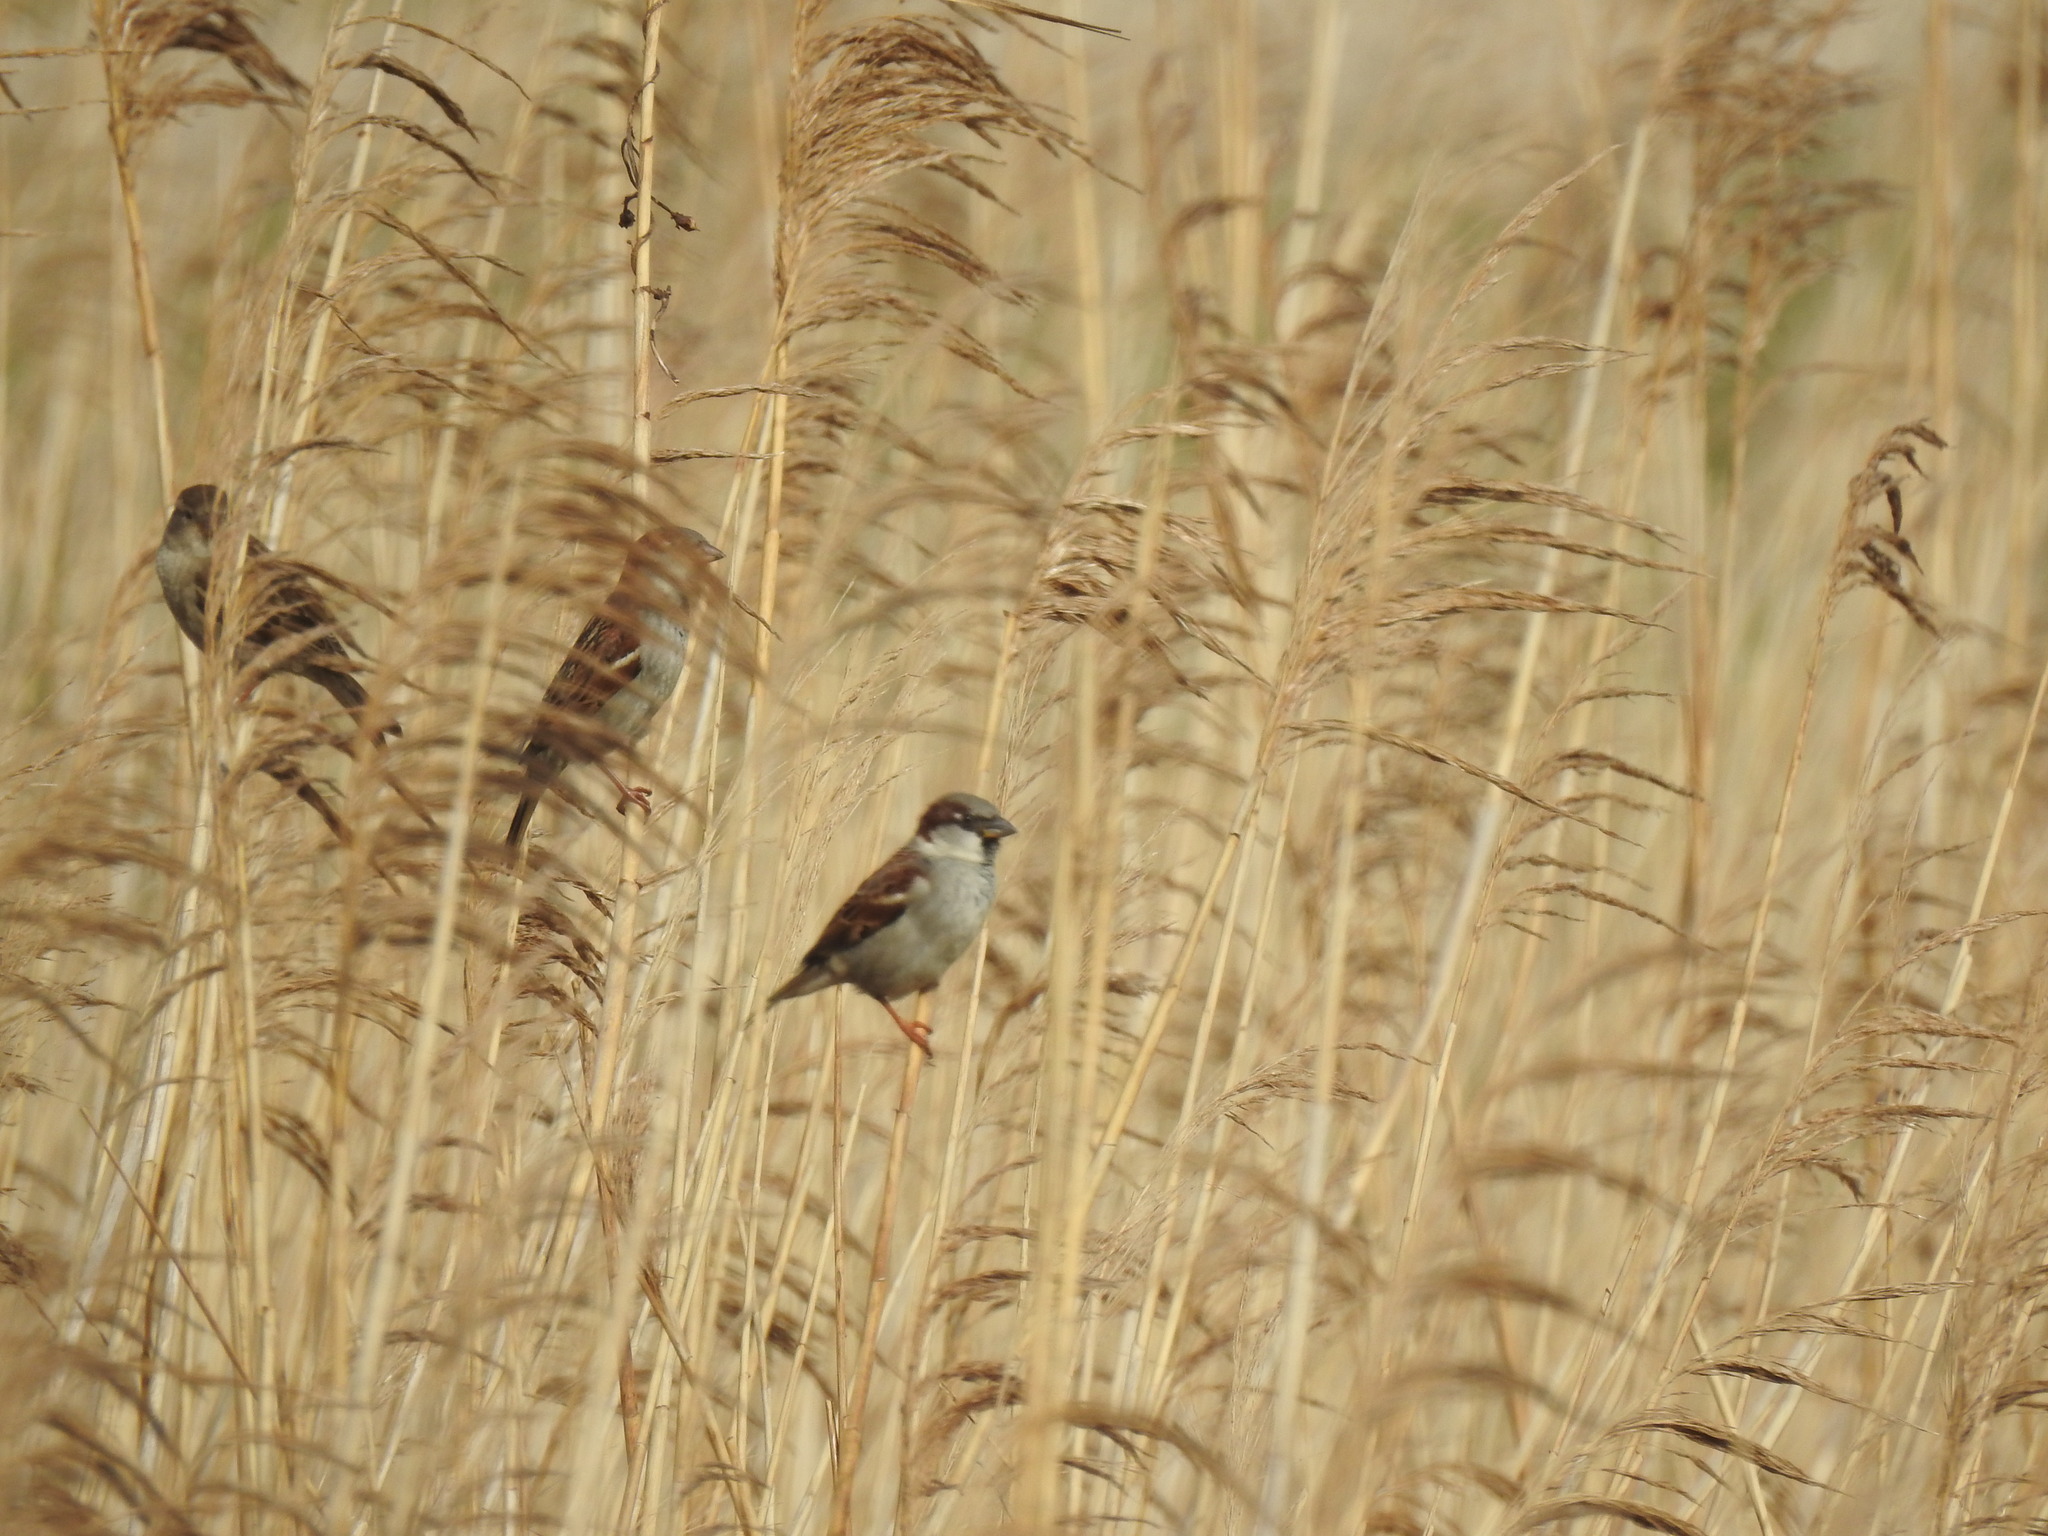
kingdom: Animalia
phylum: Chordata
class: Aves
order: Passeriformes
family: Passeridae
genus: Passer
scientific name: Passer domesticus
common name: House sparrow
